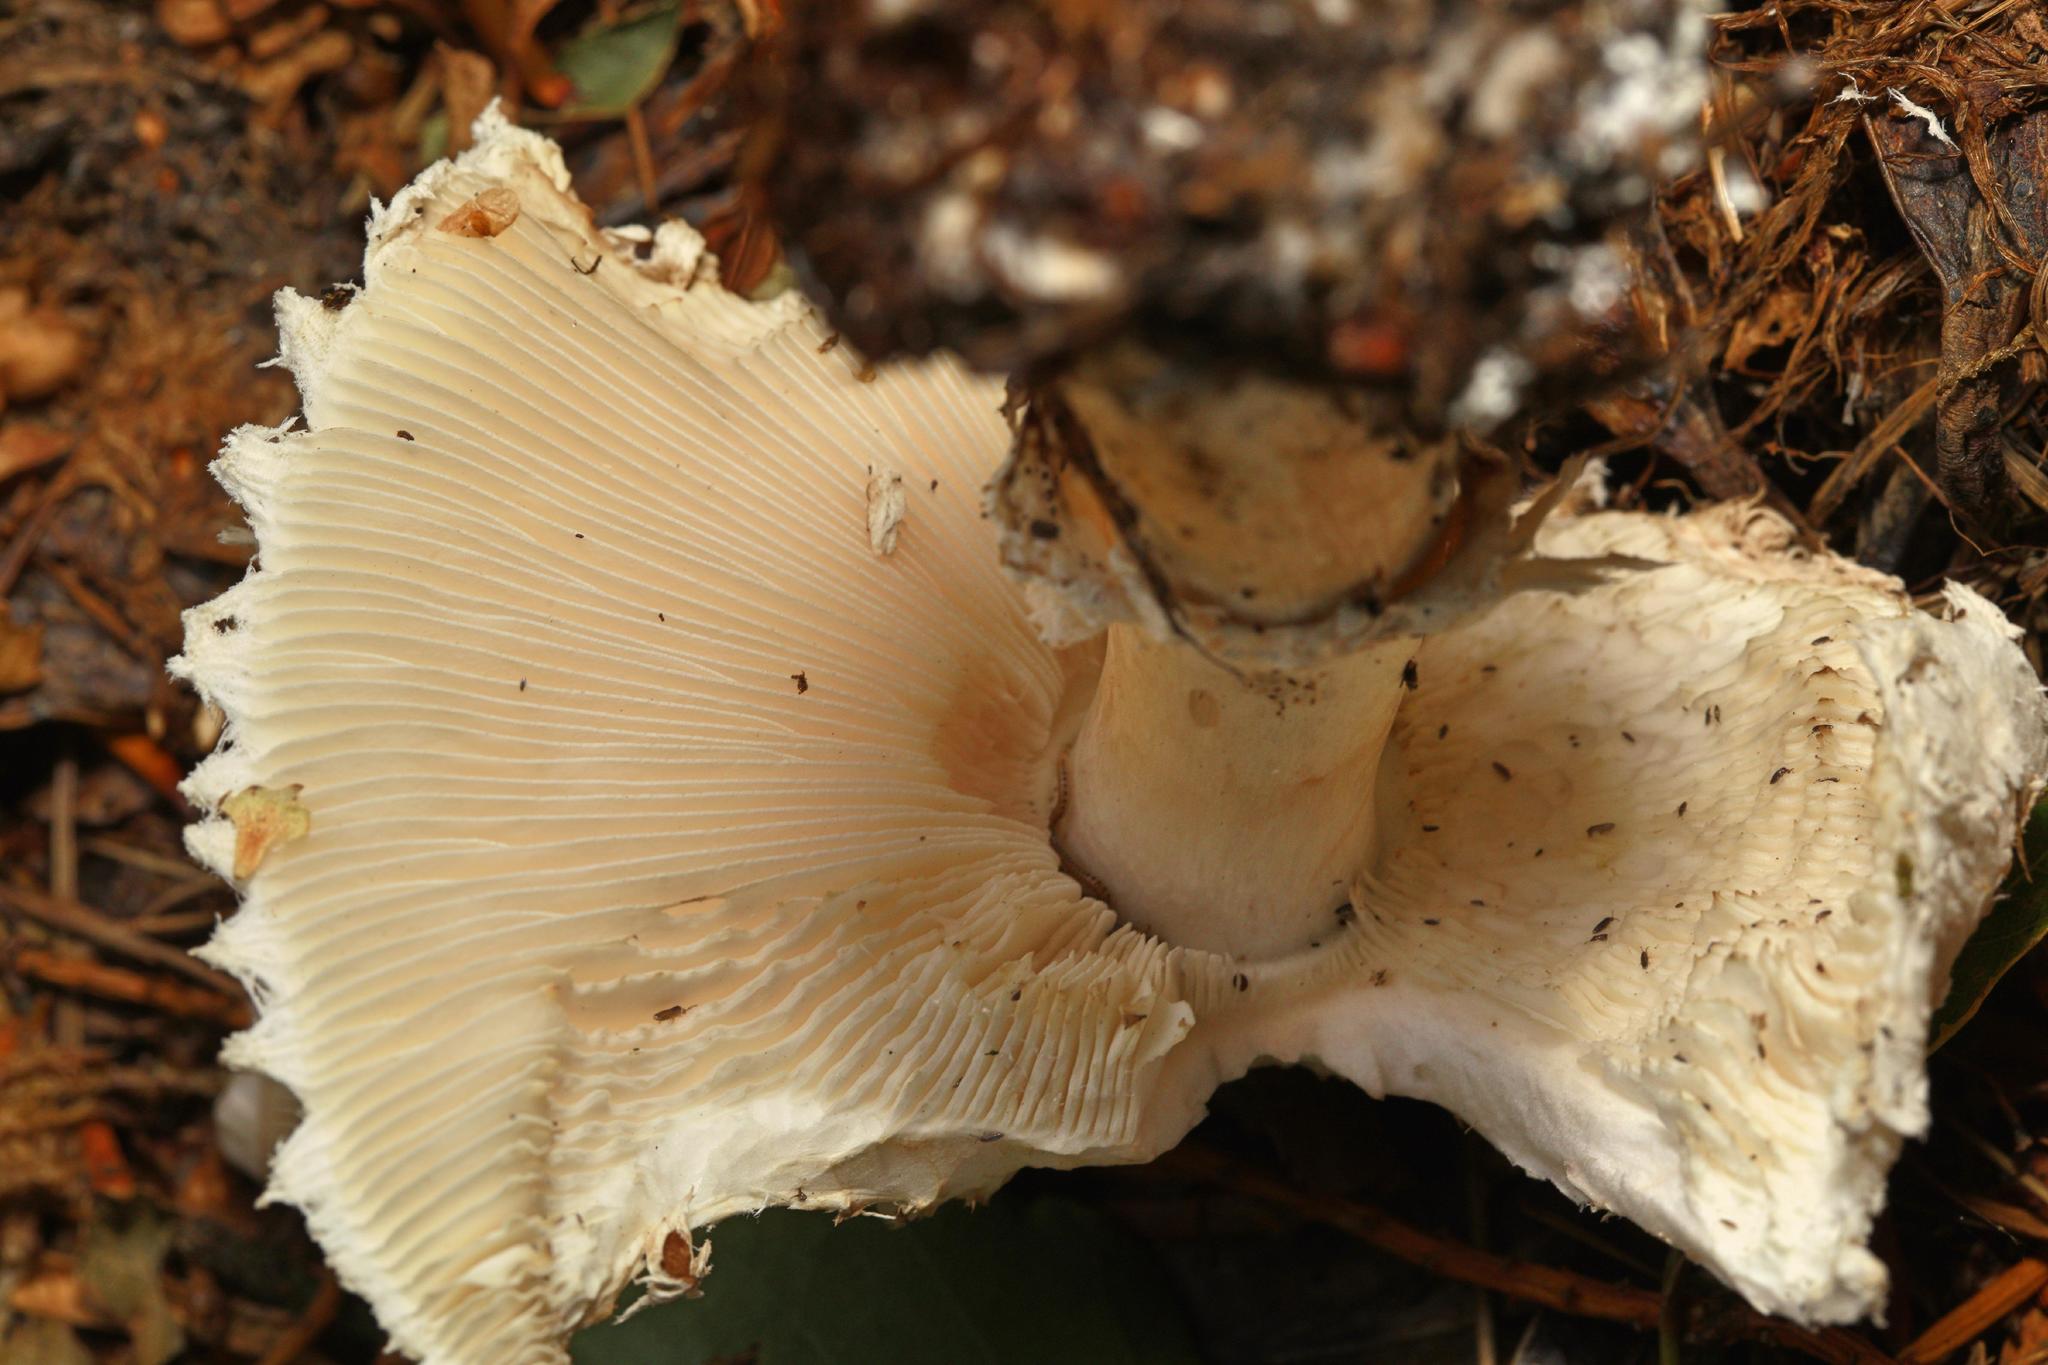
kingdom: Fungi
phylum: Basidiomycota
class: Agaricomycetes
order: Agaricales
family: Agaricaceae
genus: Agaricus
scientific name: Agaricus augustus
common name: Prince
